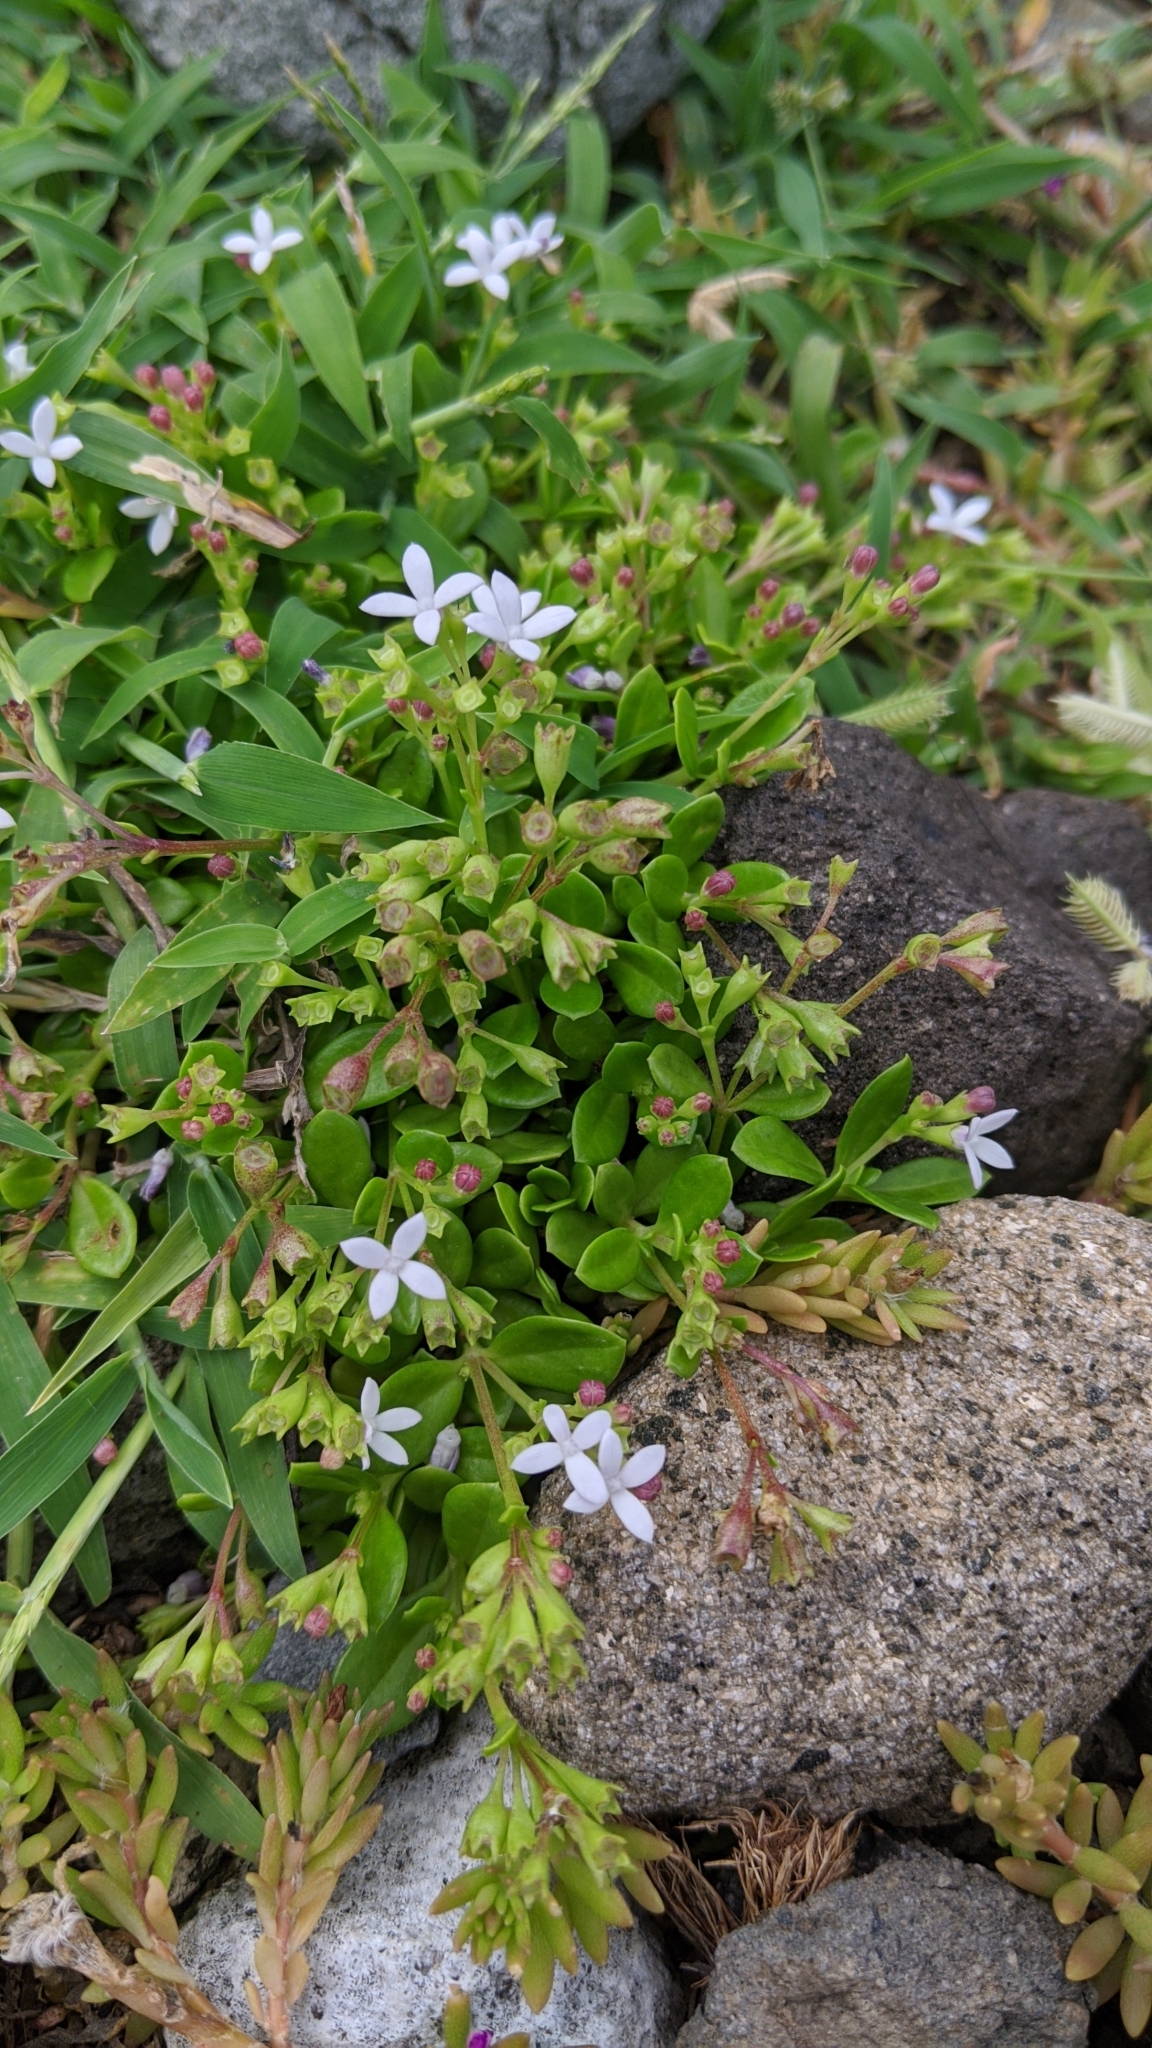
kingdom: Plantae
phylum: Tracheophyta
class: Magnoliopsida
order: Gentianales
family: Rubiaceae
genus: Leptopetalum
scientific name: Leptopetalum strigulosum
